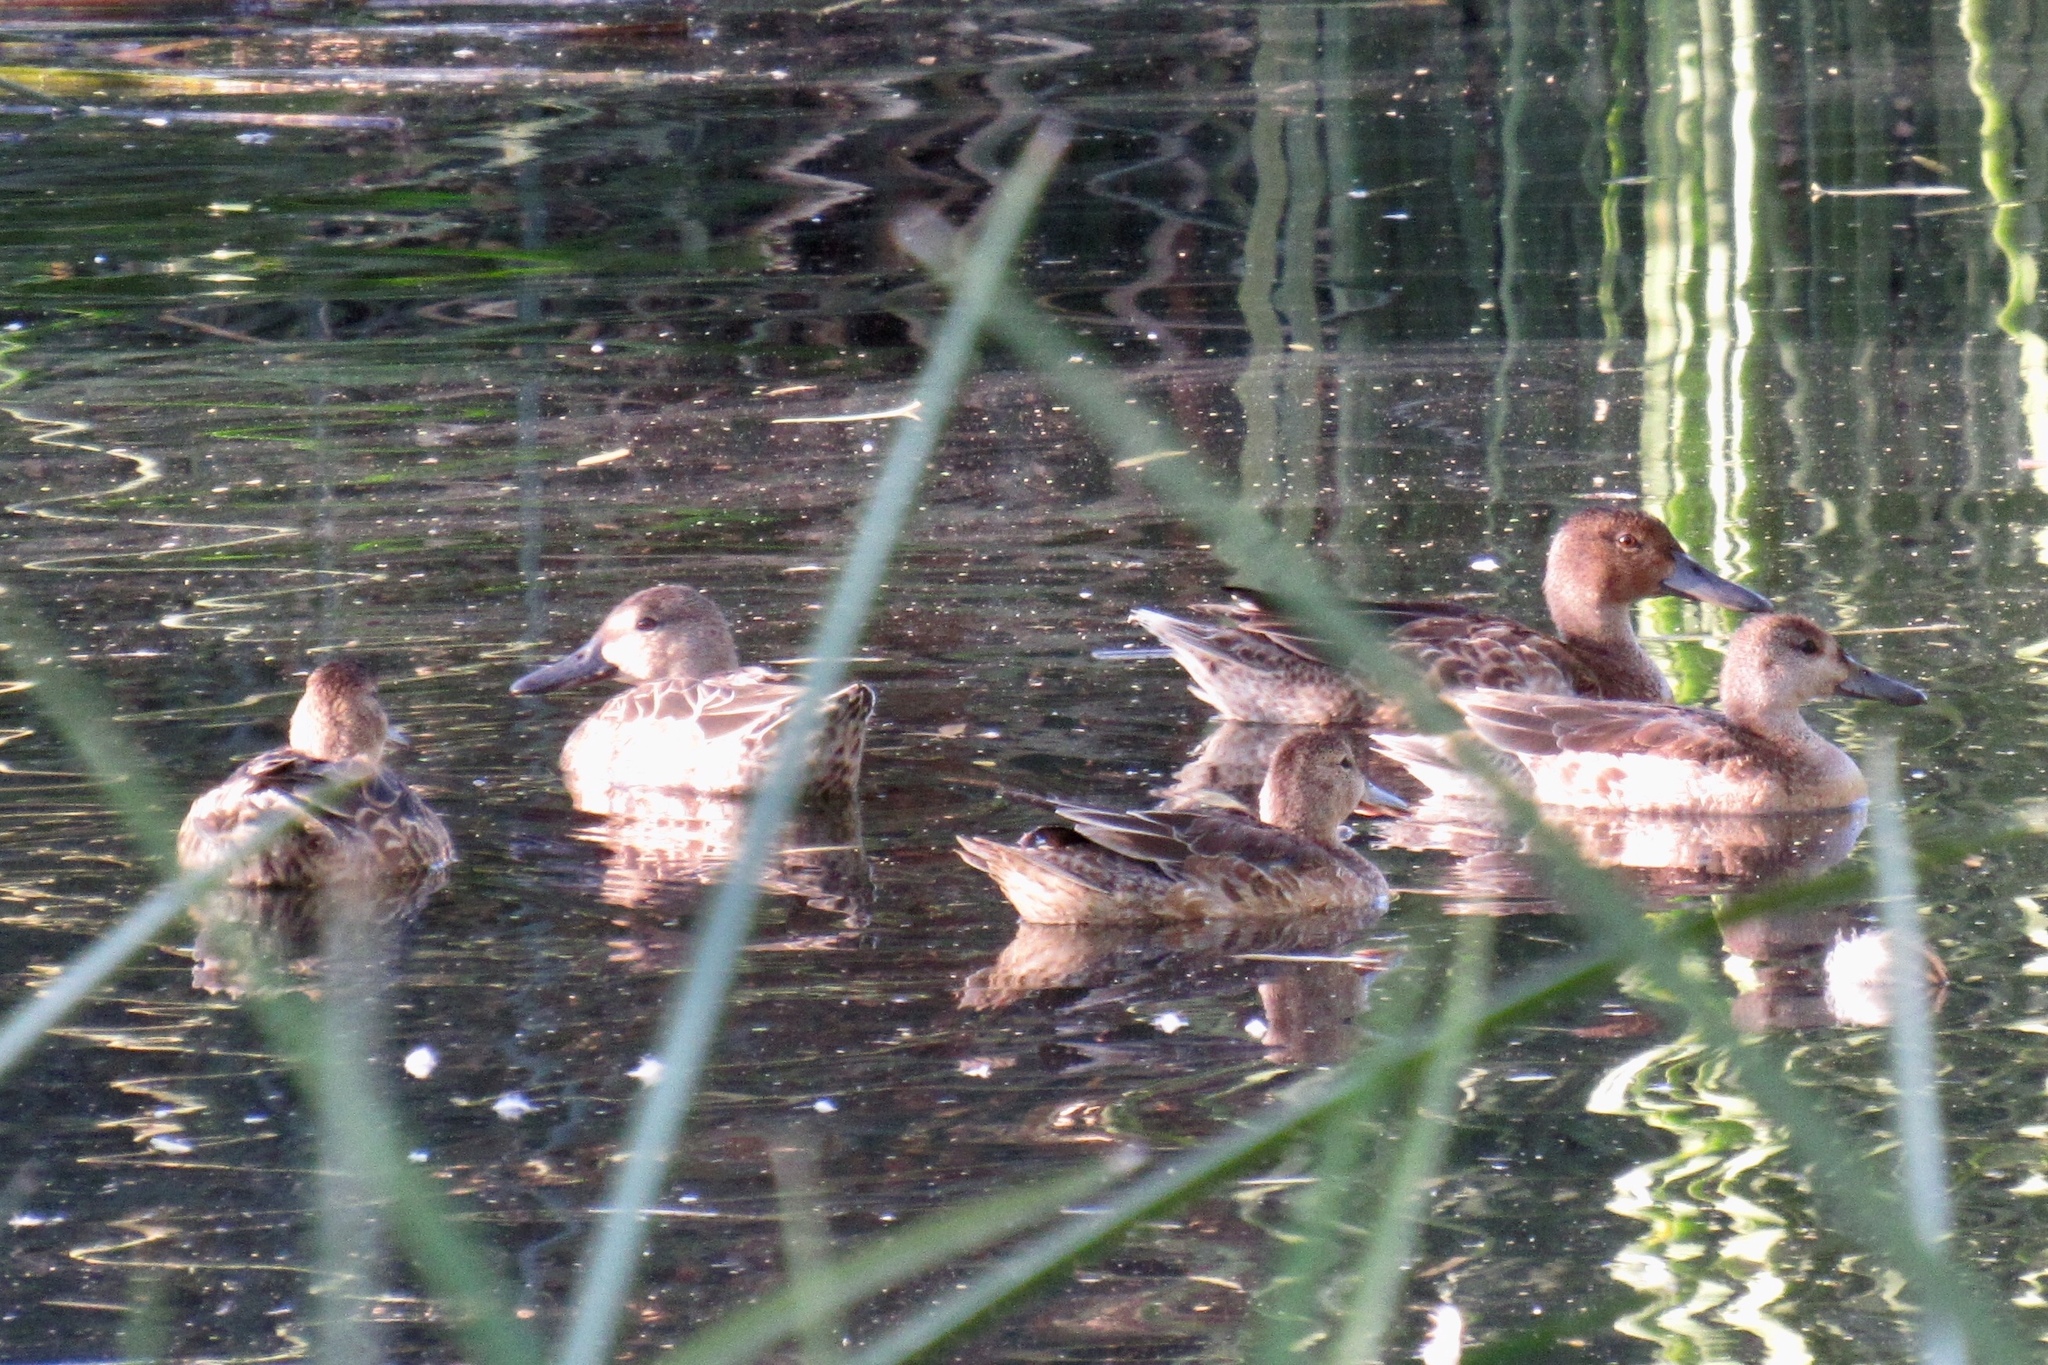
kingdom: Animalia
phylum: Chordata
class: Aves
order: Anseriformes
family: Anatidae
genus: Spatula
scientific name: Spatula cyanoptera
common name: Cinnamon teal
